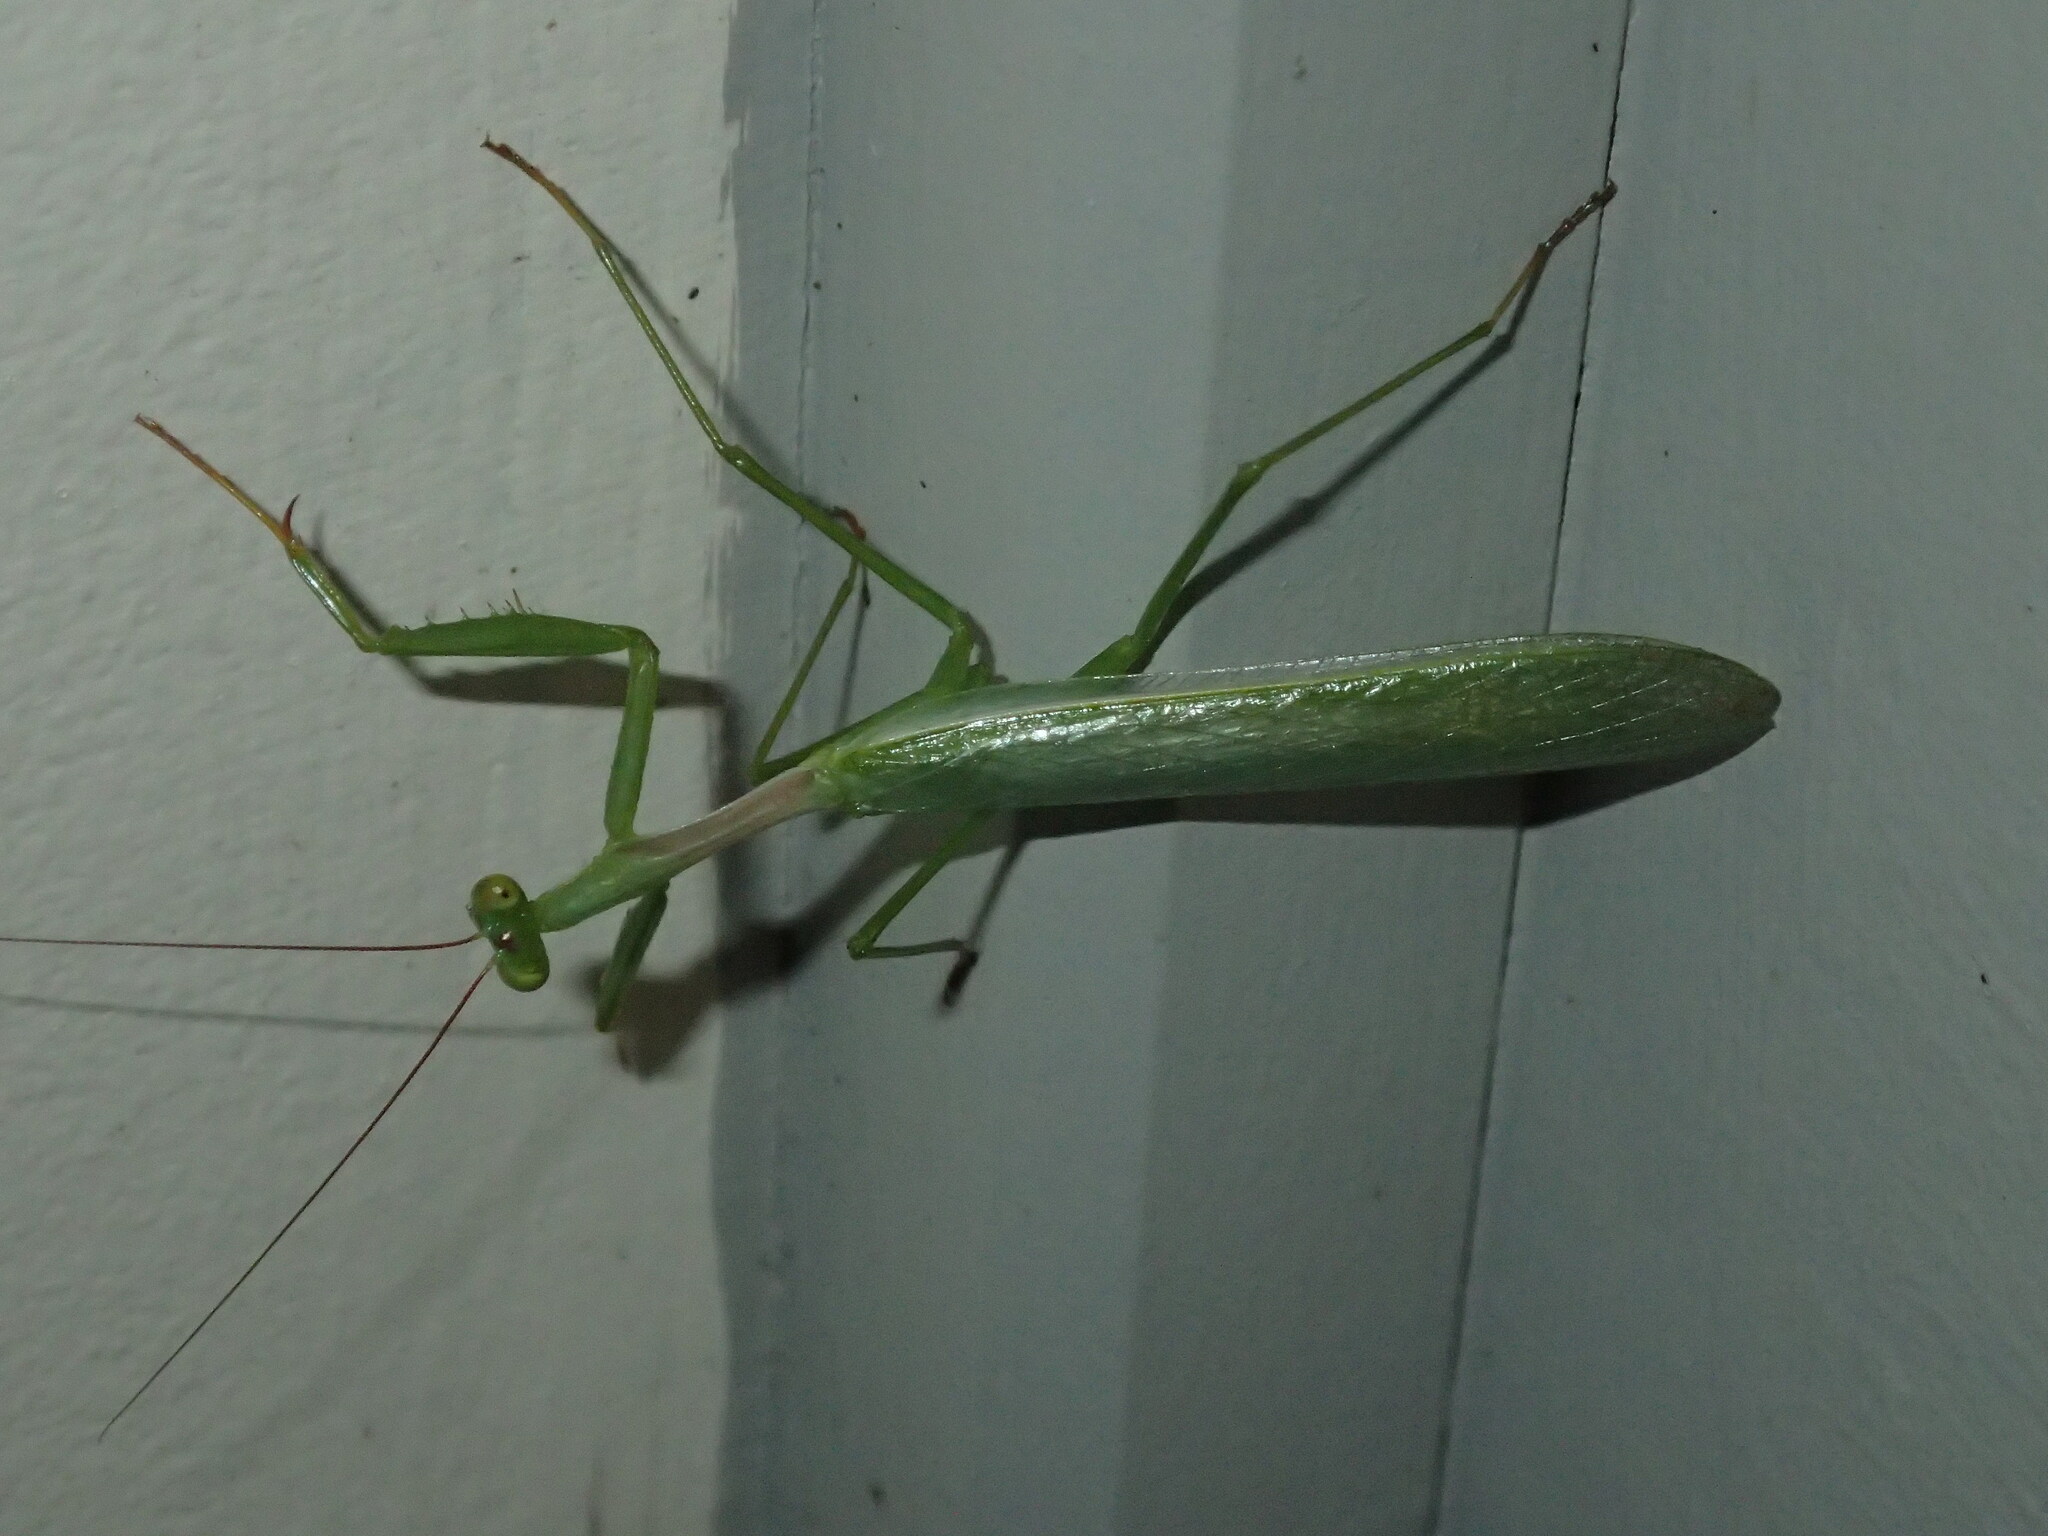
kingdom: Animalia
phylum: Arthropoda
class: Insecta
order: Mantodea
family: Miomantidae
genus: Miomantis
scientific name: Miomantis caffra
